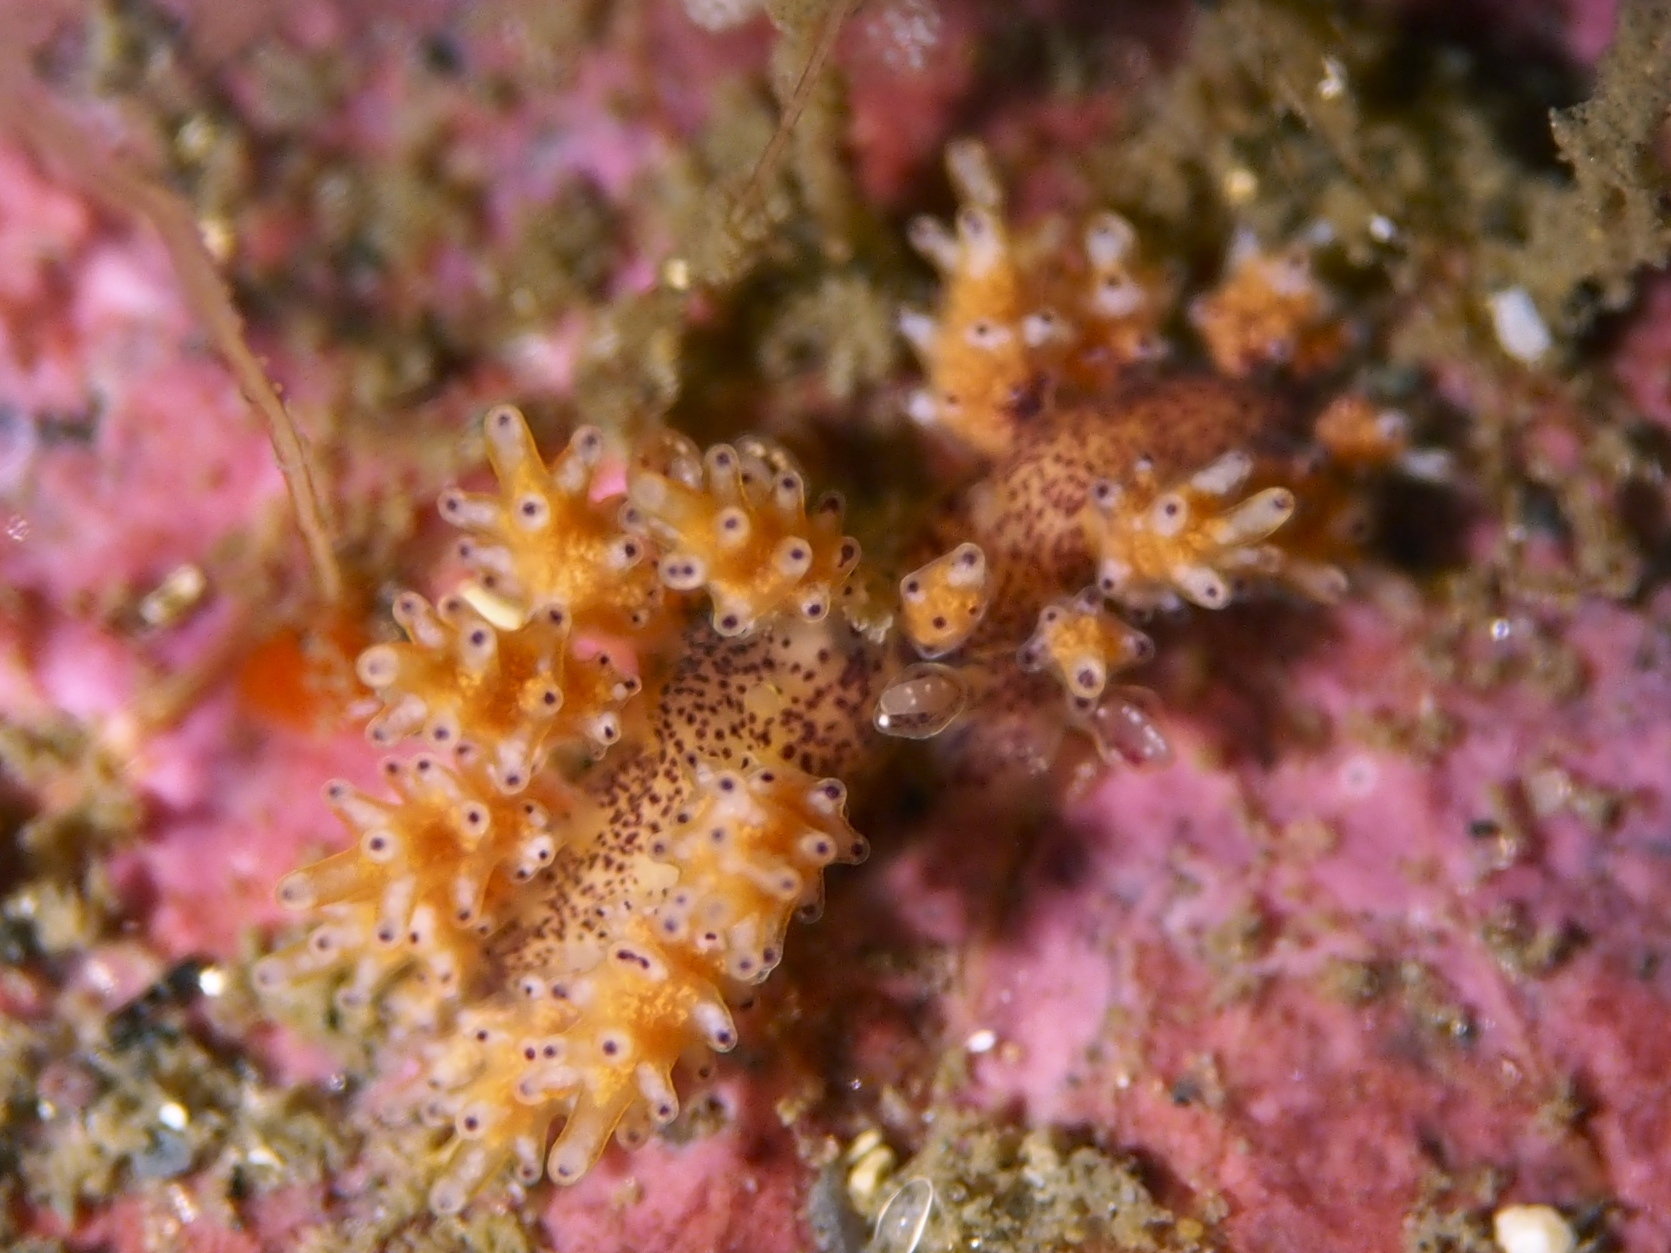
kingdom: Animalia
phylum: Mollusca
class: Gastropoda
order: Nudibranchia
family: Dotidae
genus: Doto
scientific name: Doto maculata
